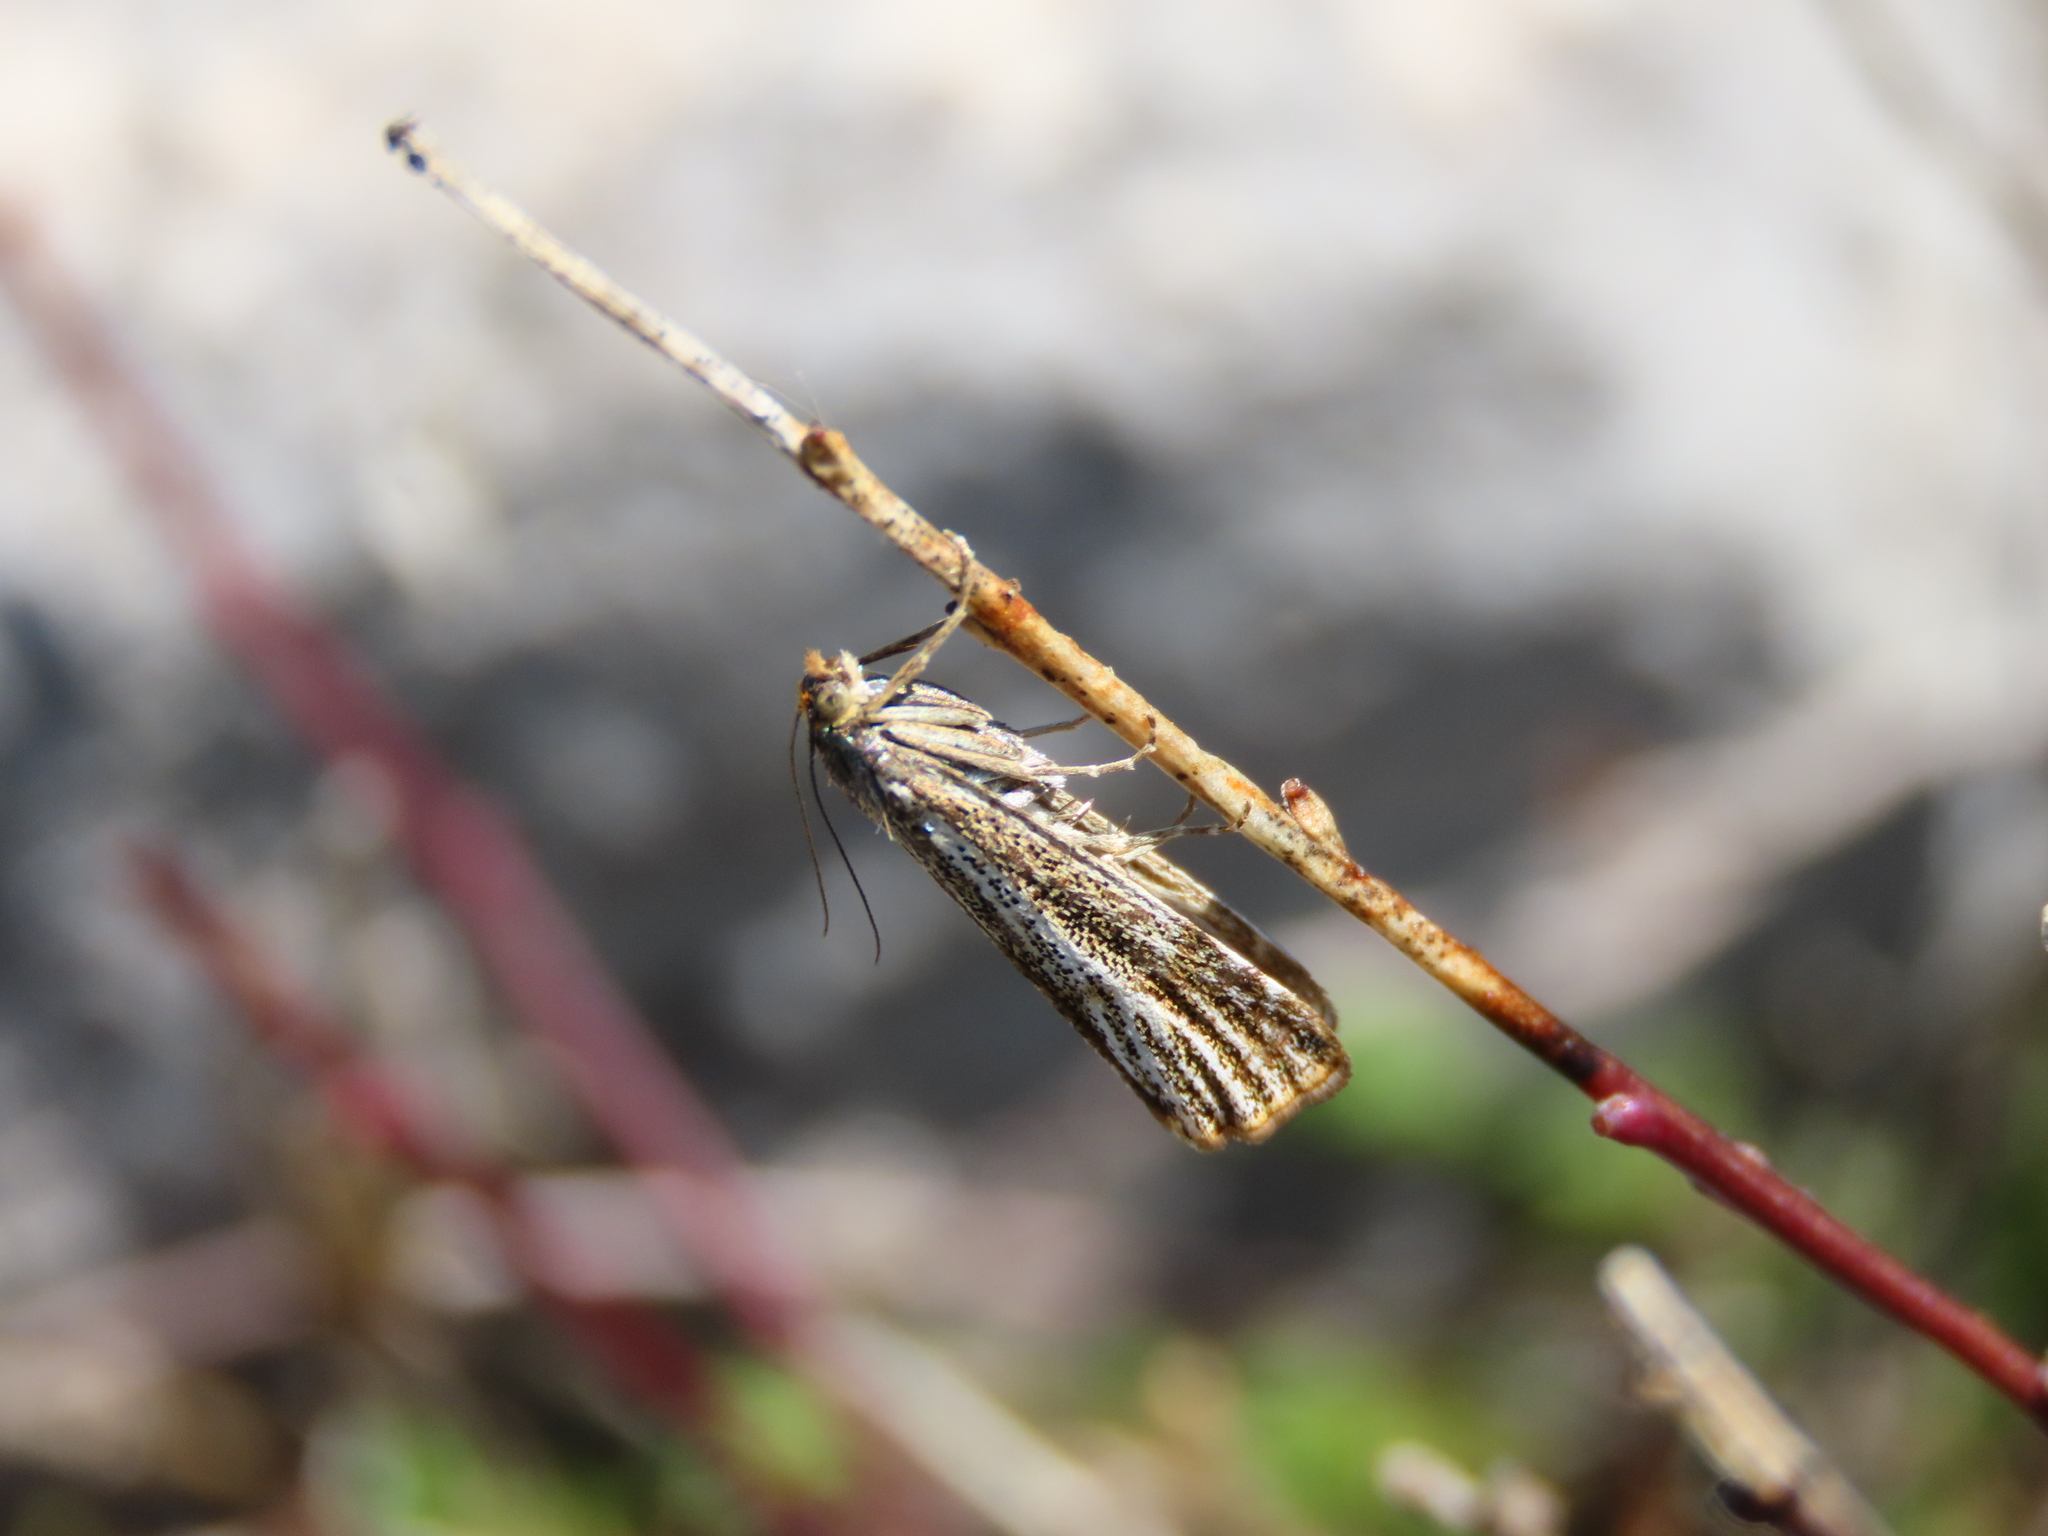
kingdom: Animalia
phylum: Arthropoda
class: Insecta
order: Lepidoptera
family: Crambidae
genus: Thisanotia
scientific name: Thisanotia chrysonuchella
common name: Powdered grass-veneer
